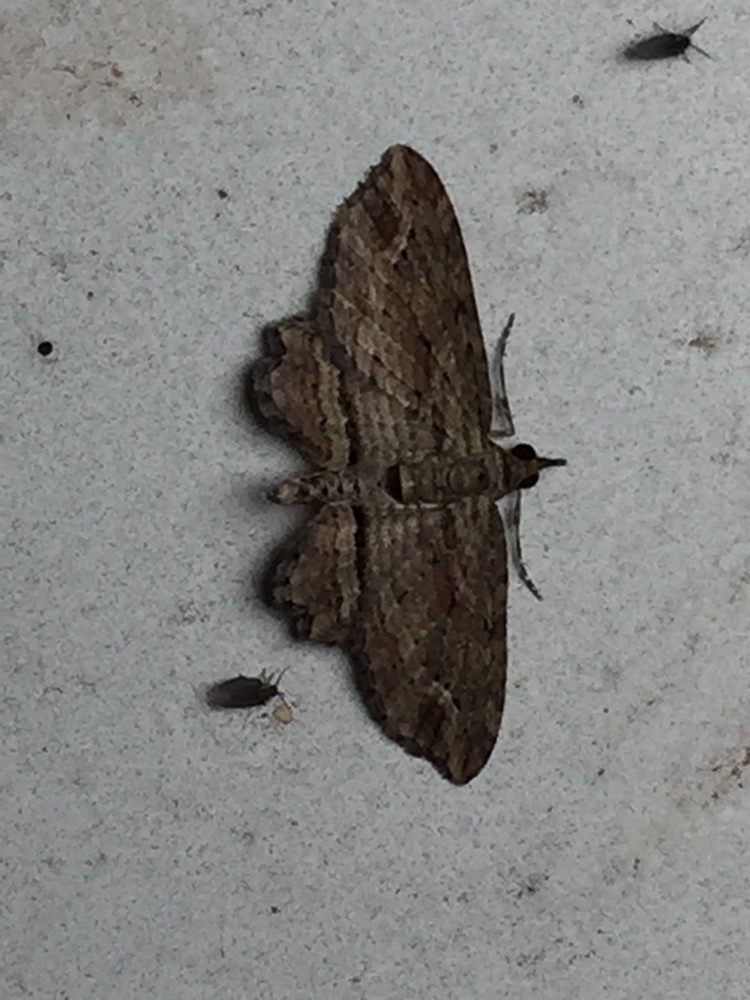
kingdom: Animalia
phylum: Arthropoda
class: Insecta
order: Lepidoptera
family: Geometridae
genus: Chloroclystis
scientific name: Chloroclystis filata
